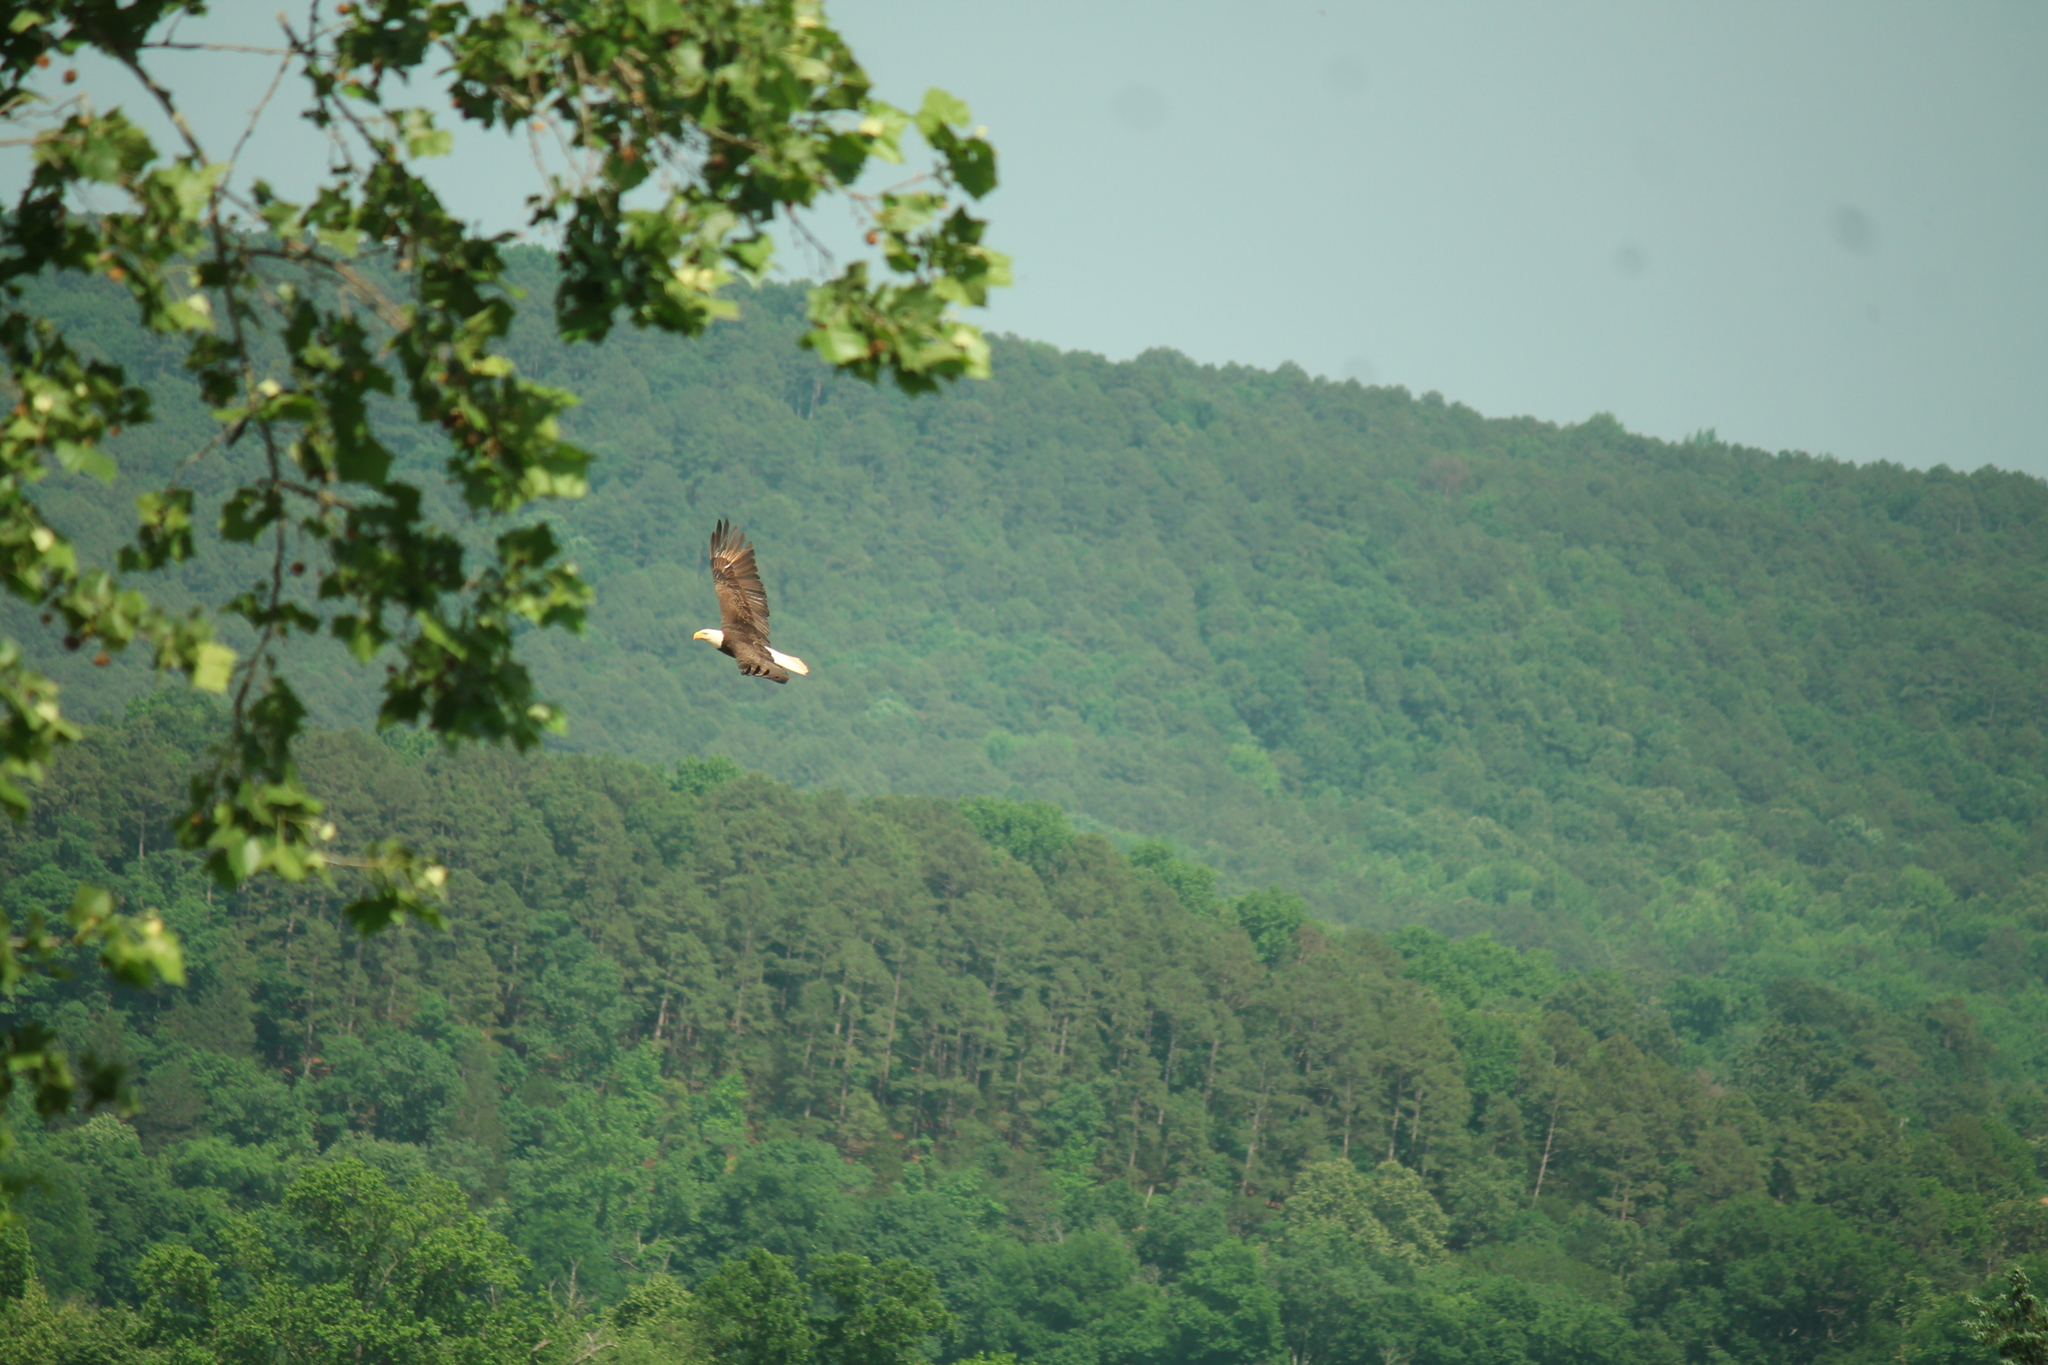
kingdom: Animalia
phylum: Chordata
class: Aves
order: Accipitriformes
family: Accipitridae
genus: Haliaeetus
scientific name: Haliaeetus leucocephalus
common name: Bald eagle
